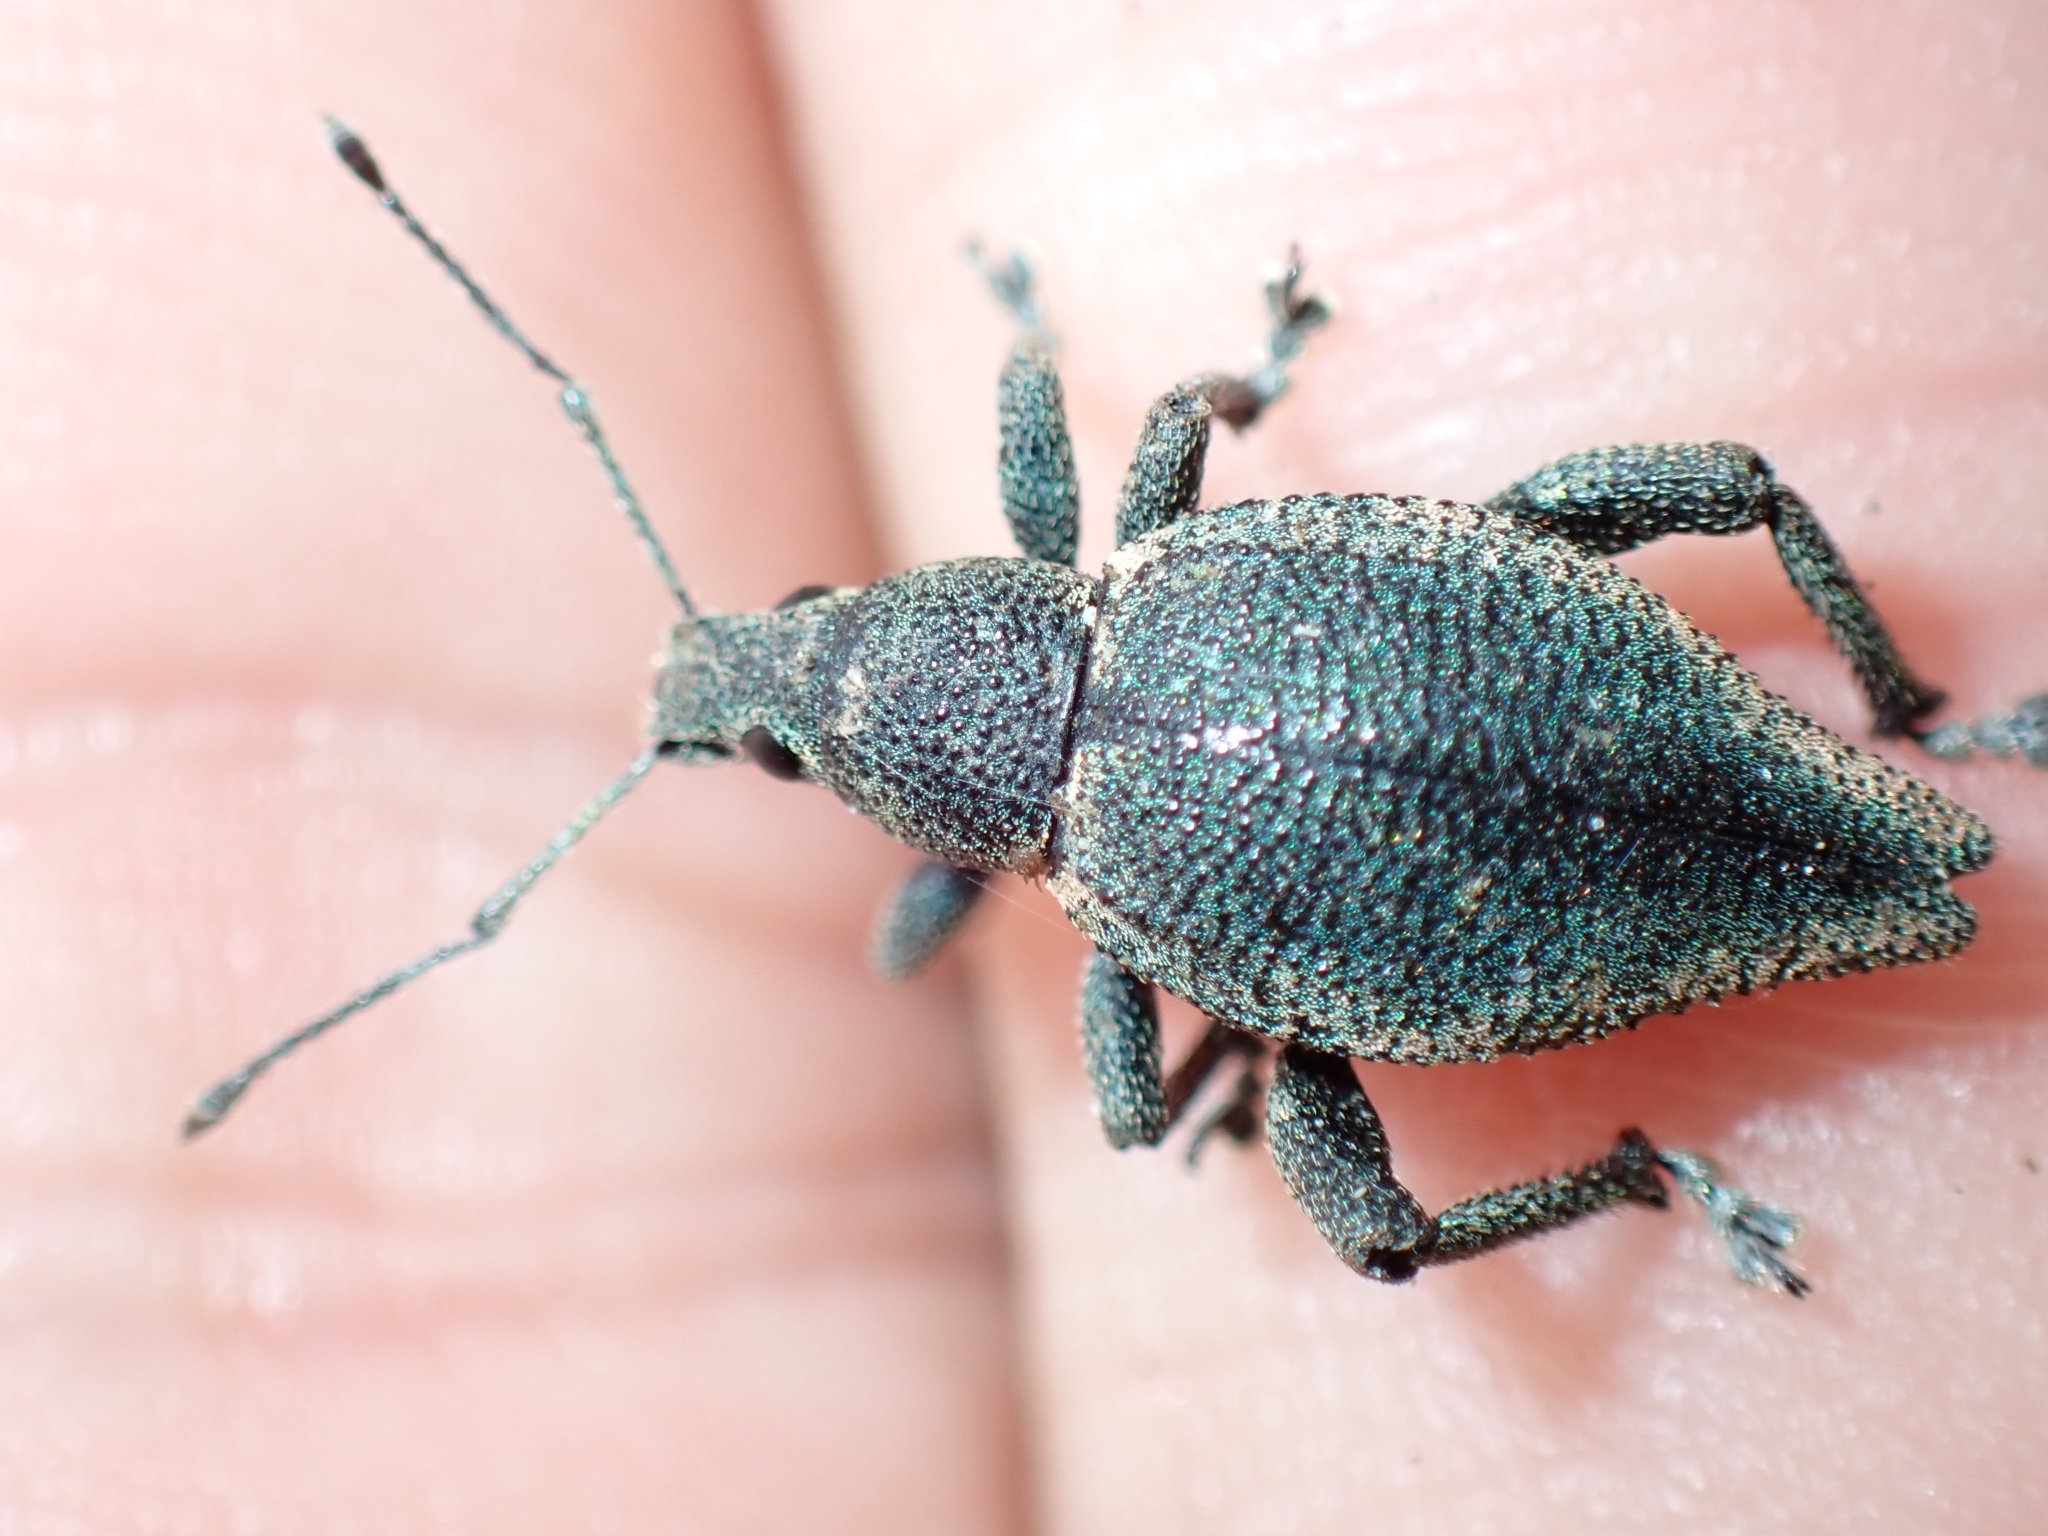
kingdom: Animalia
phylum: Arthropoda
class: Insecta
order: Coleoptera
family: Curculionidae
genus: Elytrurus
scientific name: Elytrurus marginatus
